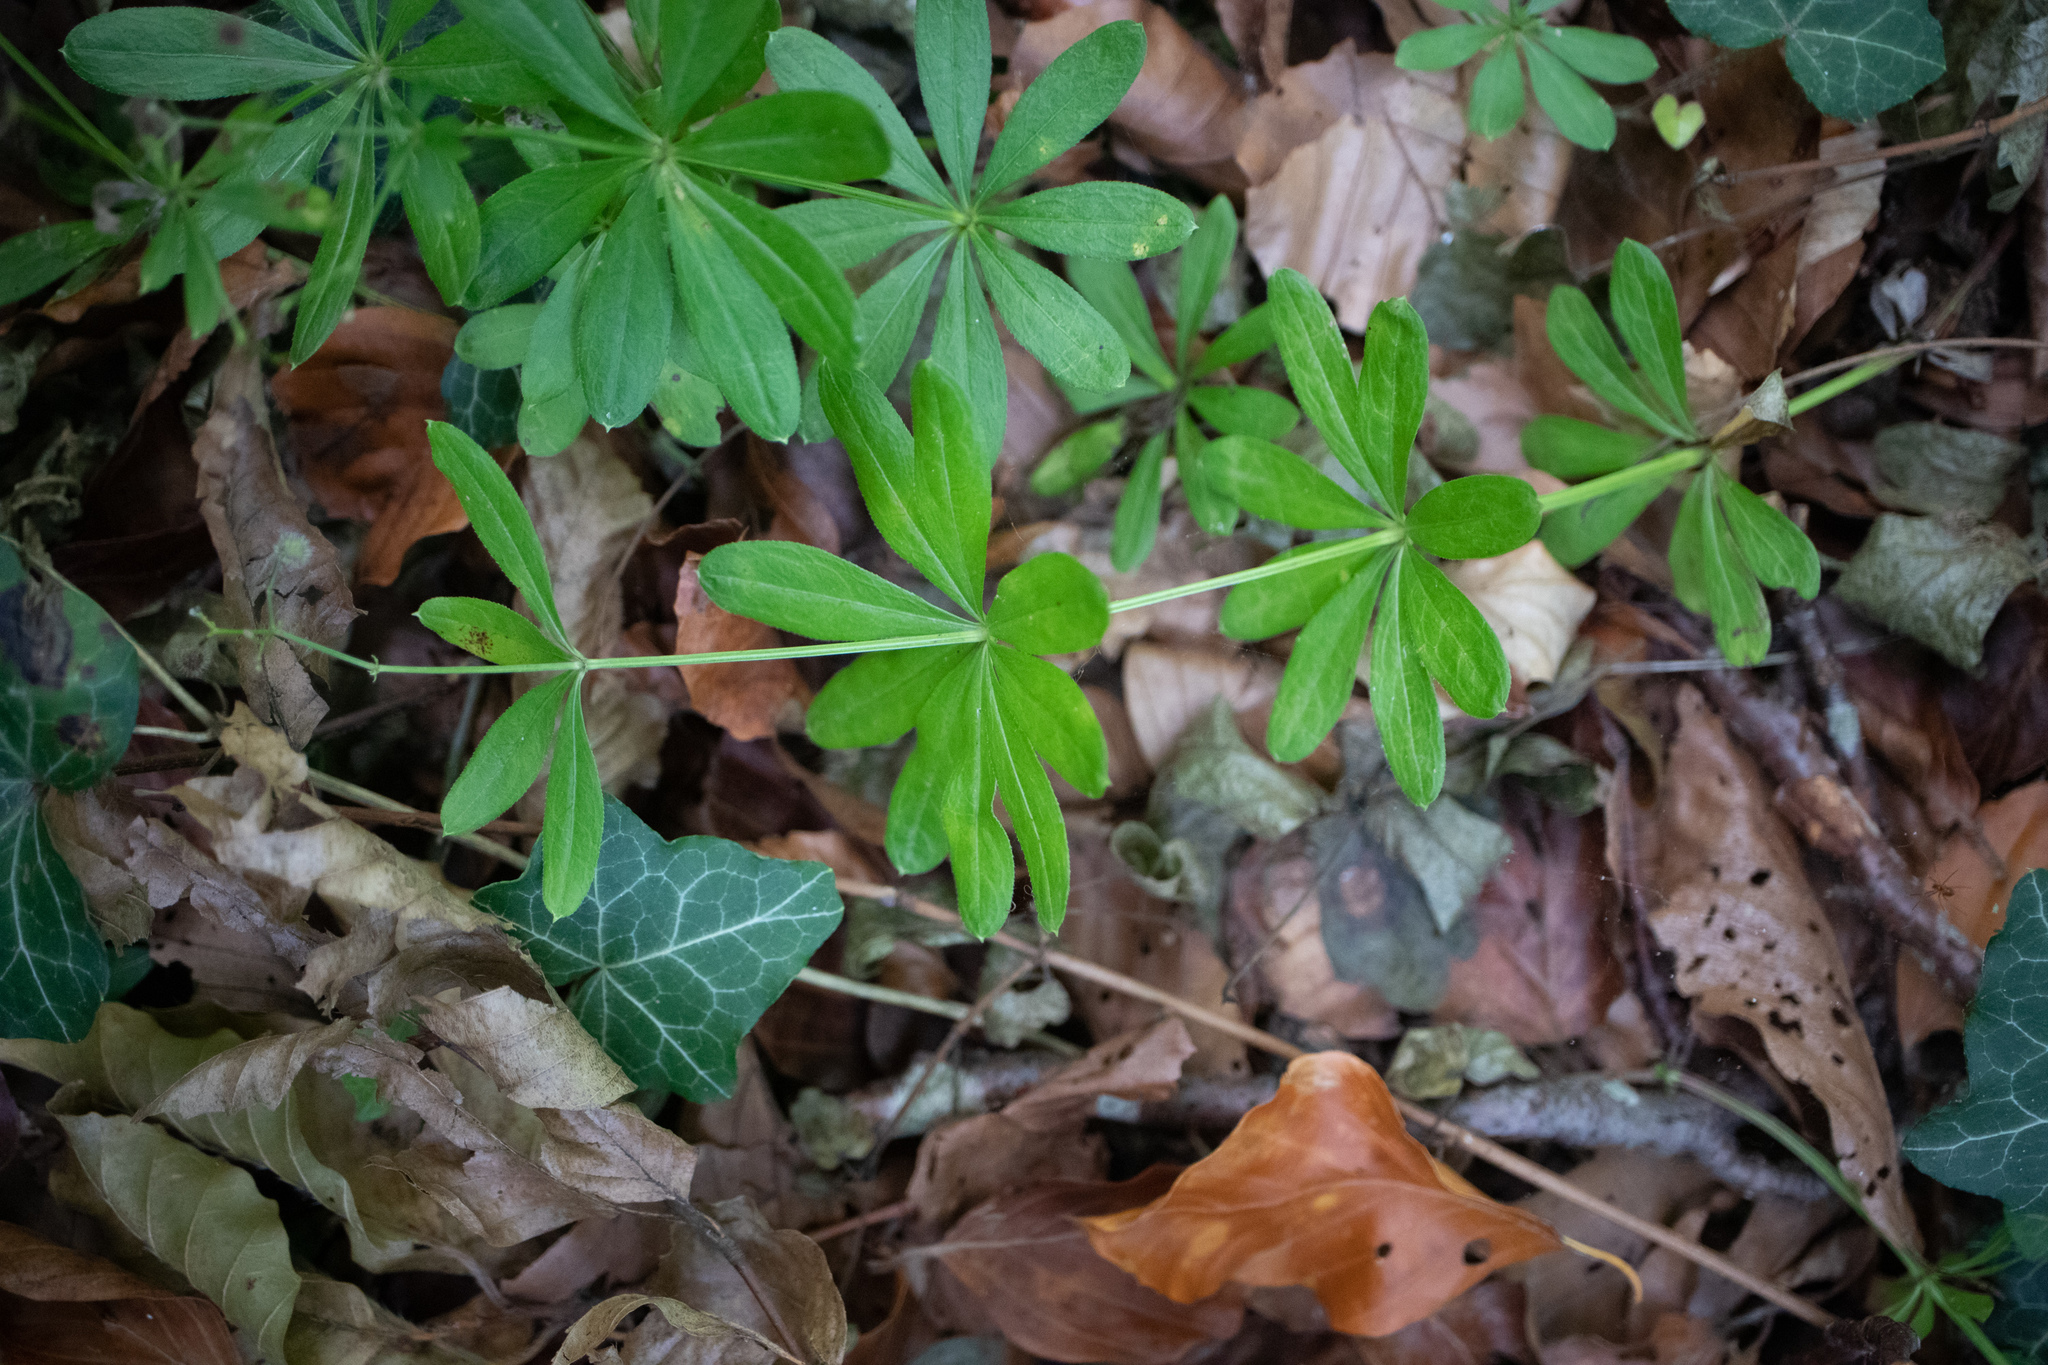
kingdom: Plantae
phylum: Tracheophyta
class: Magnoliopsida
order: Gentianales
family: Rubiaceae
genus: Galium
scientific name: Galium odoratum
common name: Sweet woodruff
